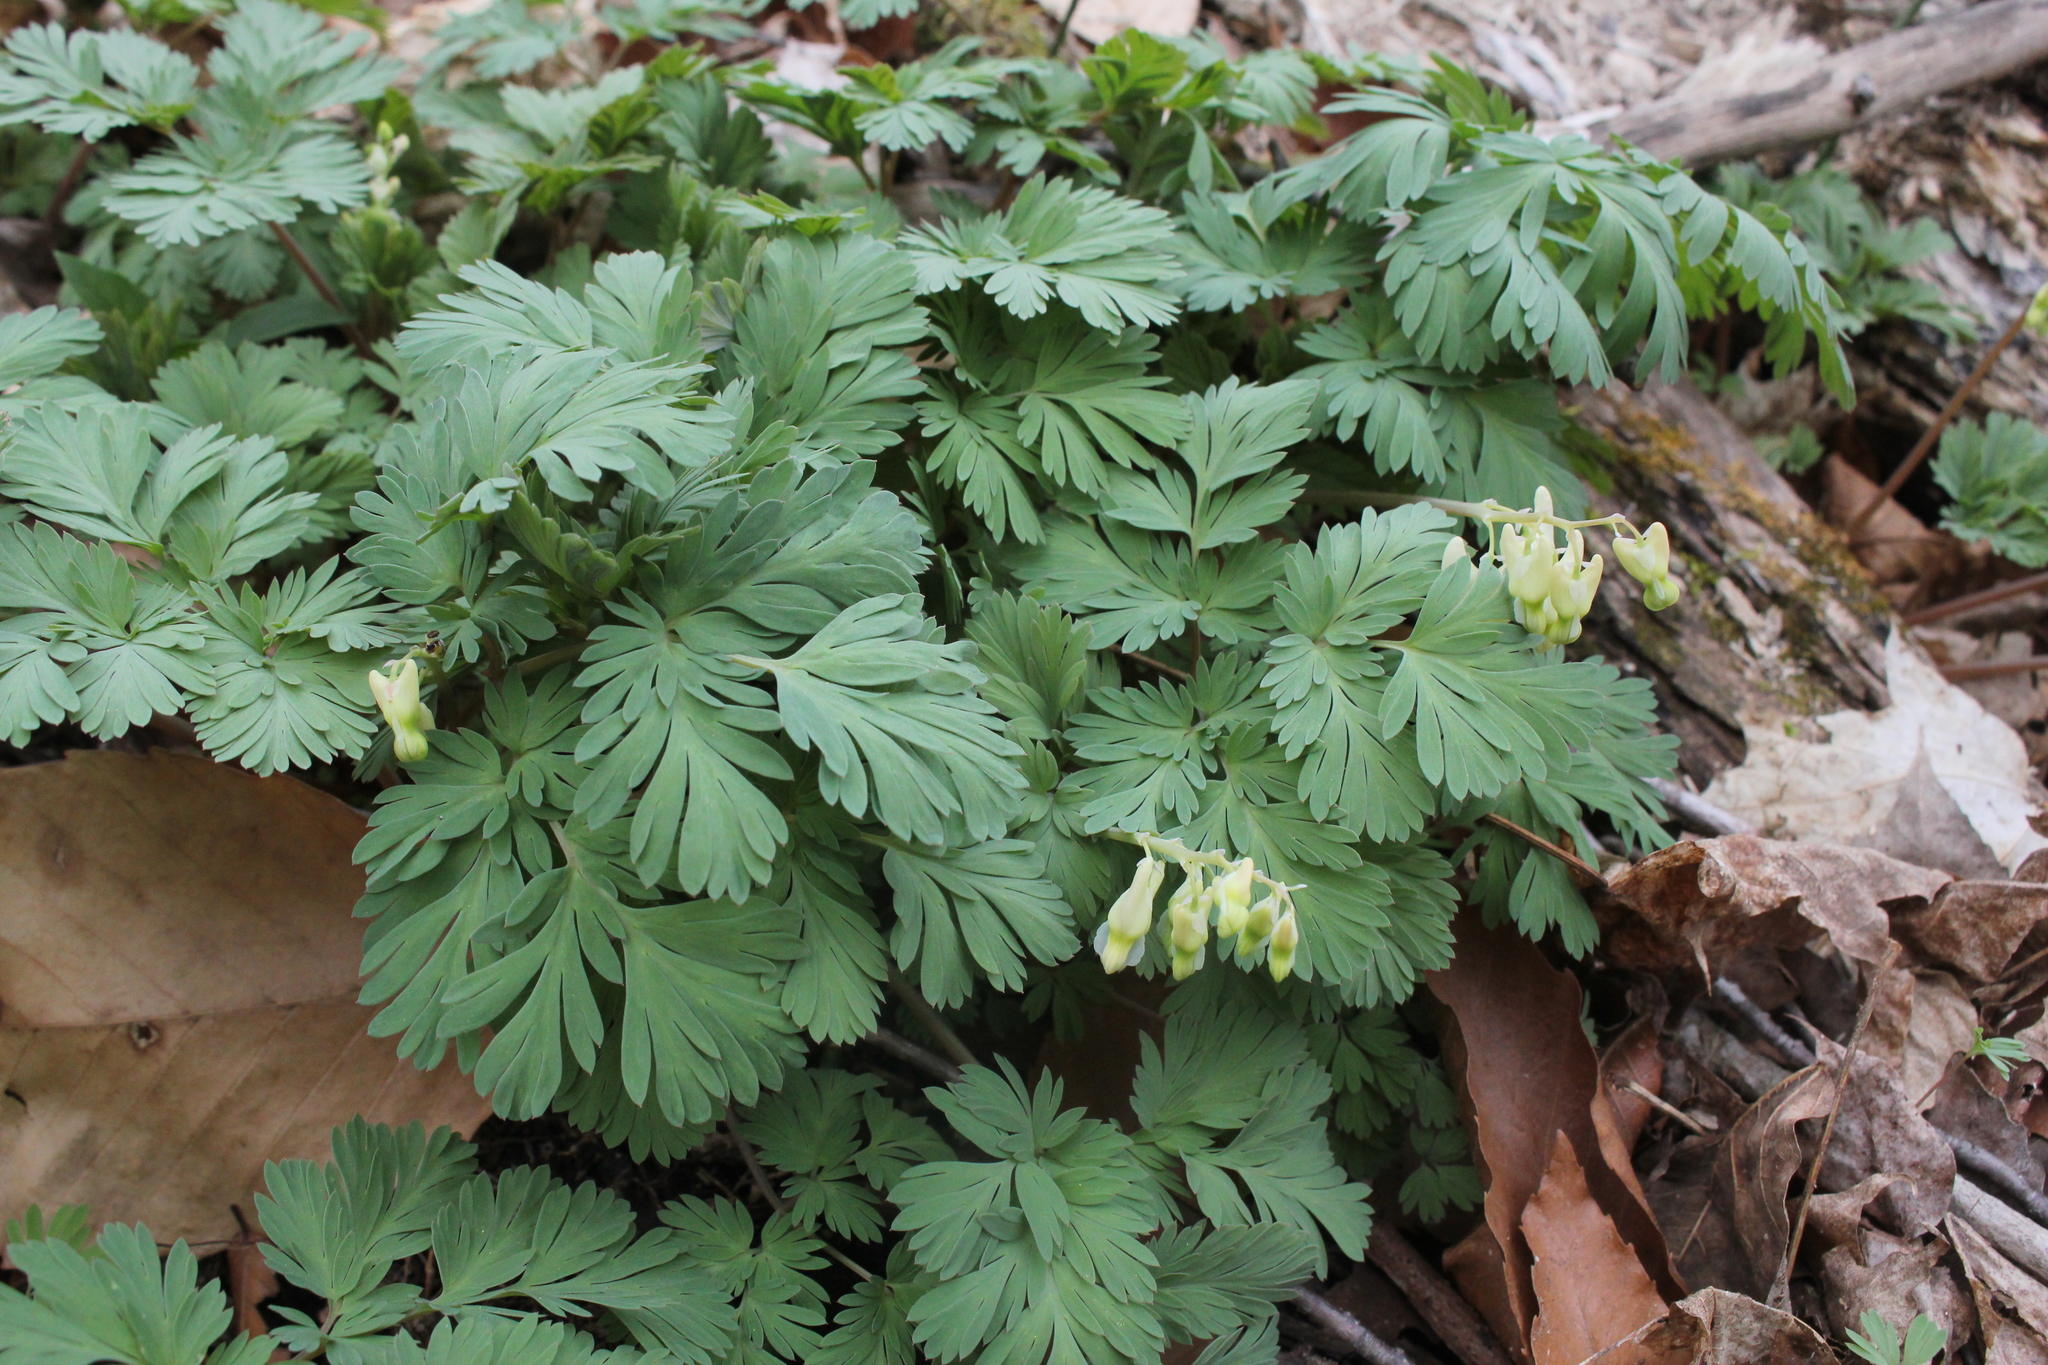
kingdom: Plantae
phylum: Tracheophyta
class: Magnoliopsida
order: Ranunculales
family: Papaveraceae
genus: Dicentra
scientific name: Dicentra cucullaria
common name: Dutchman's breeches
